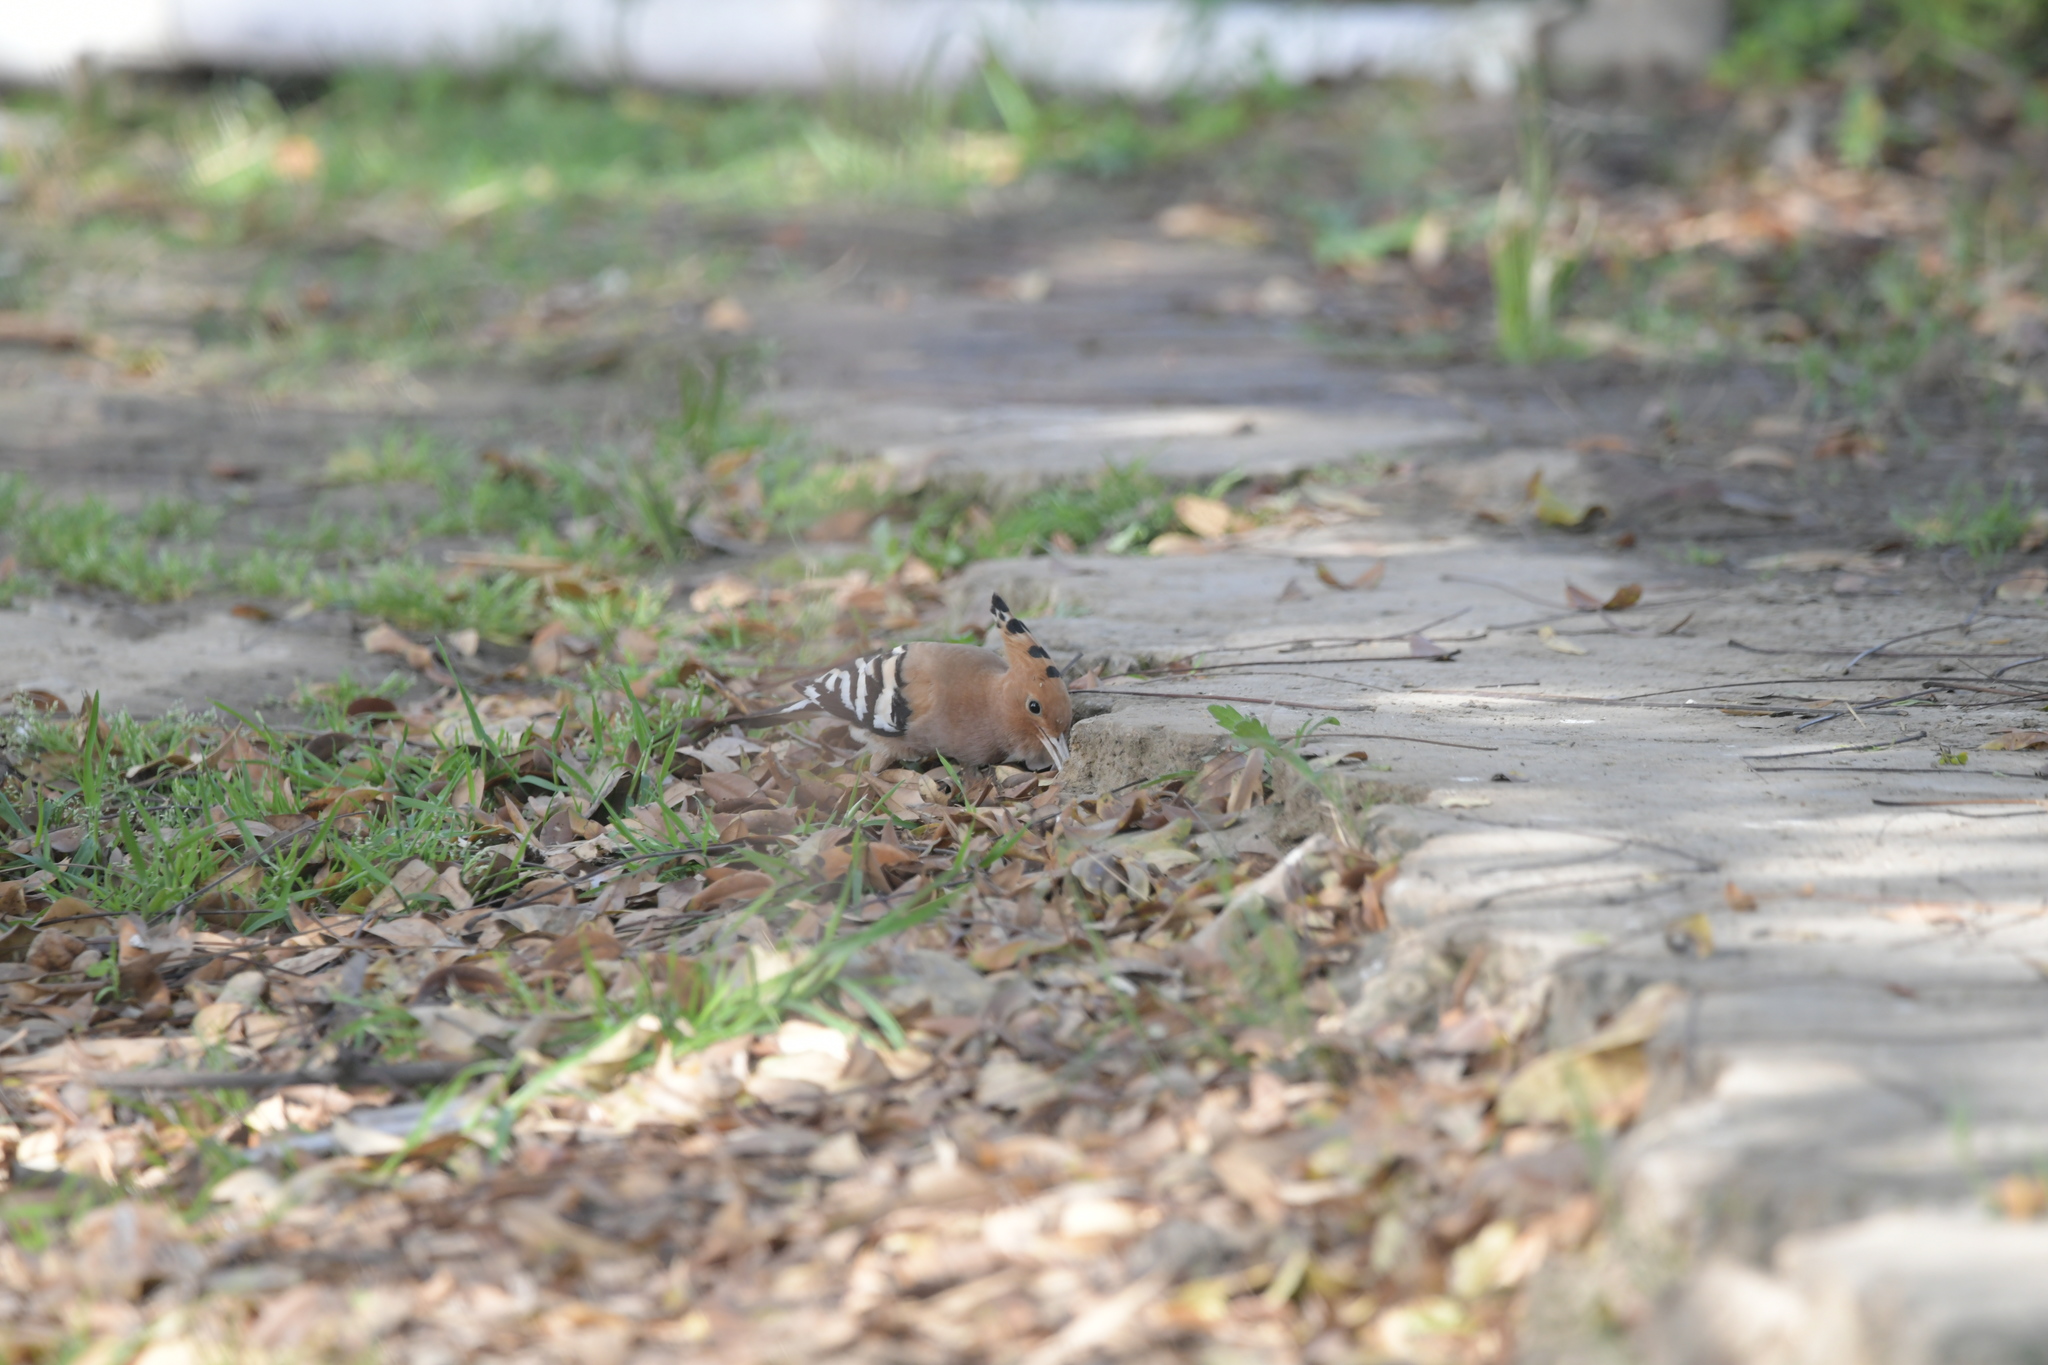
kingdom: Animalia
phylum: Chordata
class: Aves
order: Bucerotiformes
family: Upupidae
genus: Upupa
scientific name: Upupa epops
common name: Eurasian hoopoe
